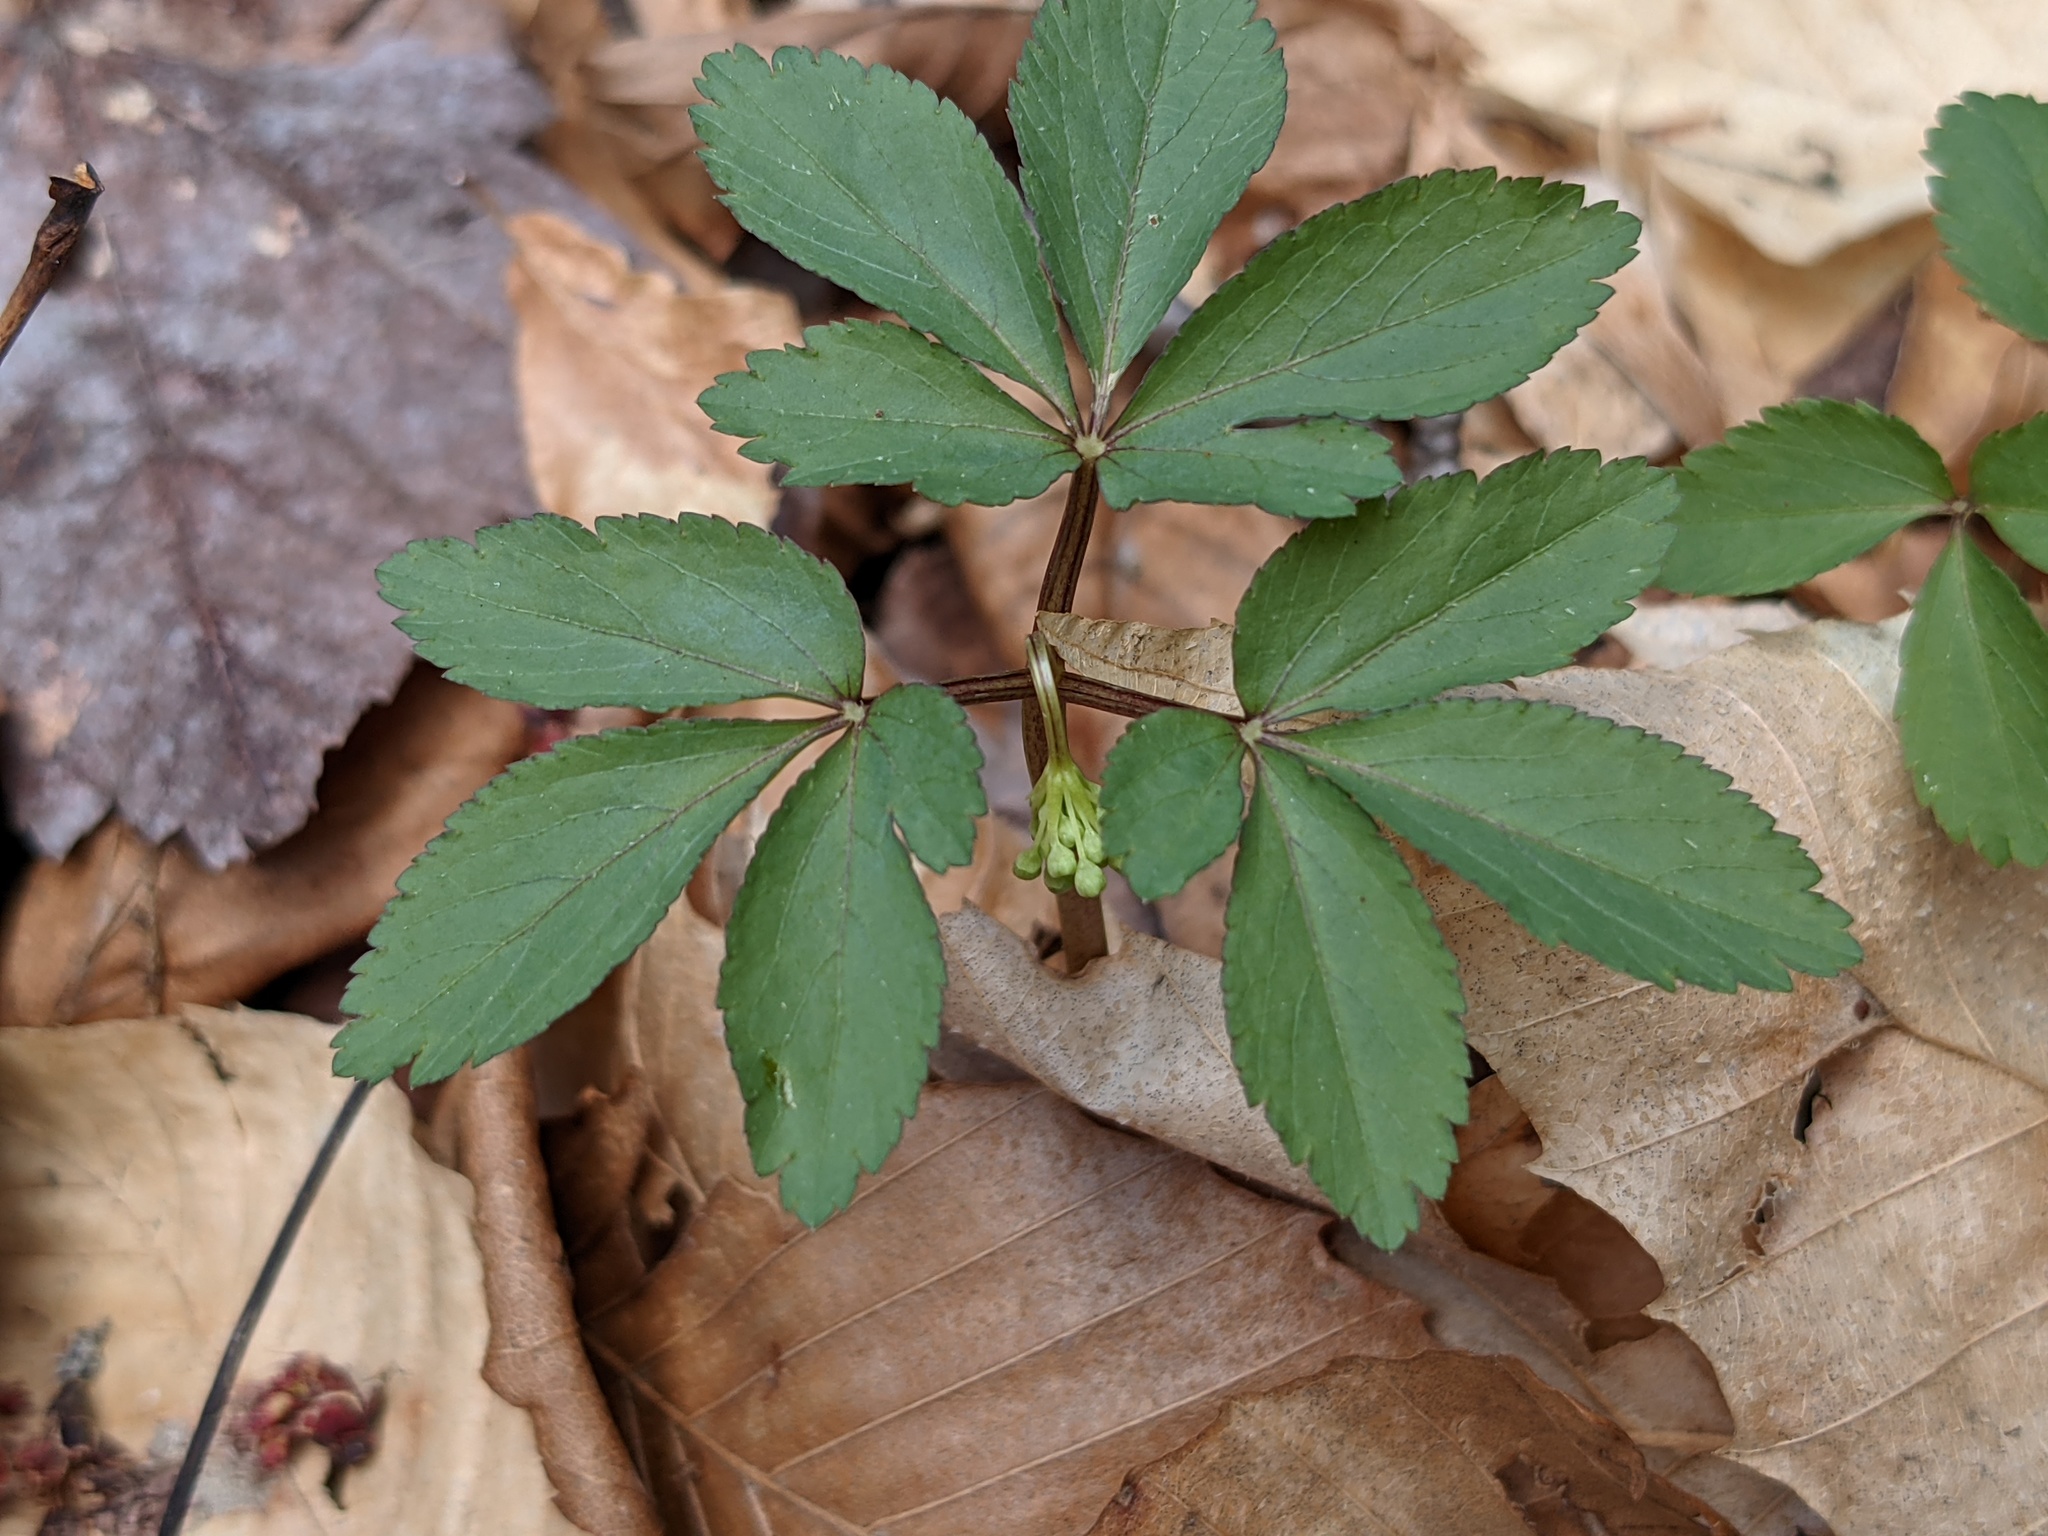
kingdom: Plantae
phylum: Tracheophyta
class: Magnoliopsida
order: Apiales
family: Araliaceae
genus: Panax
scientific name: Panax trifolius
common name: Dwarf ginseng
